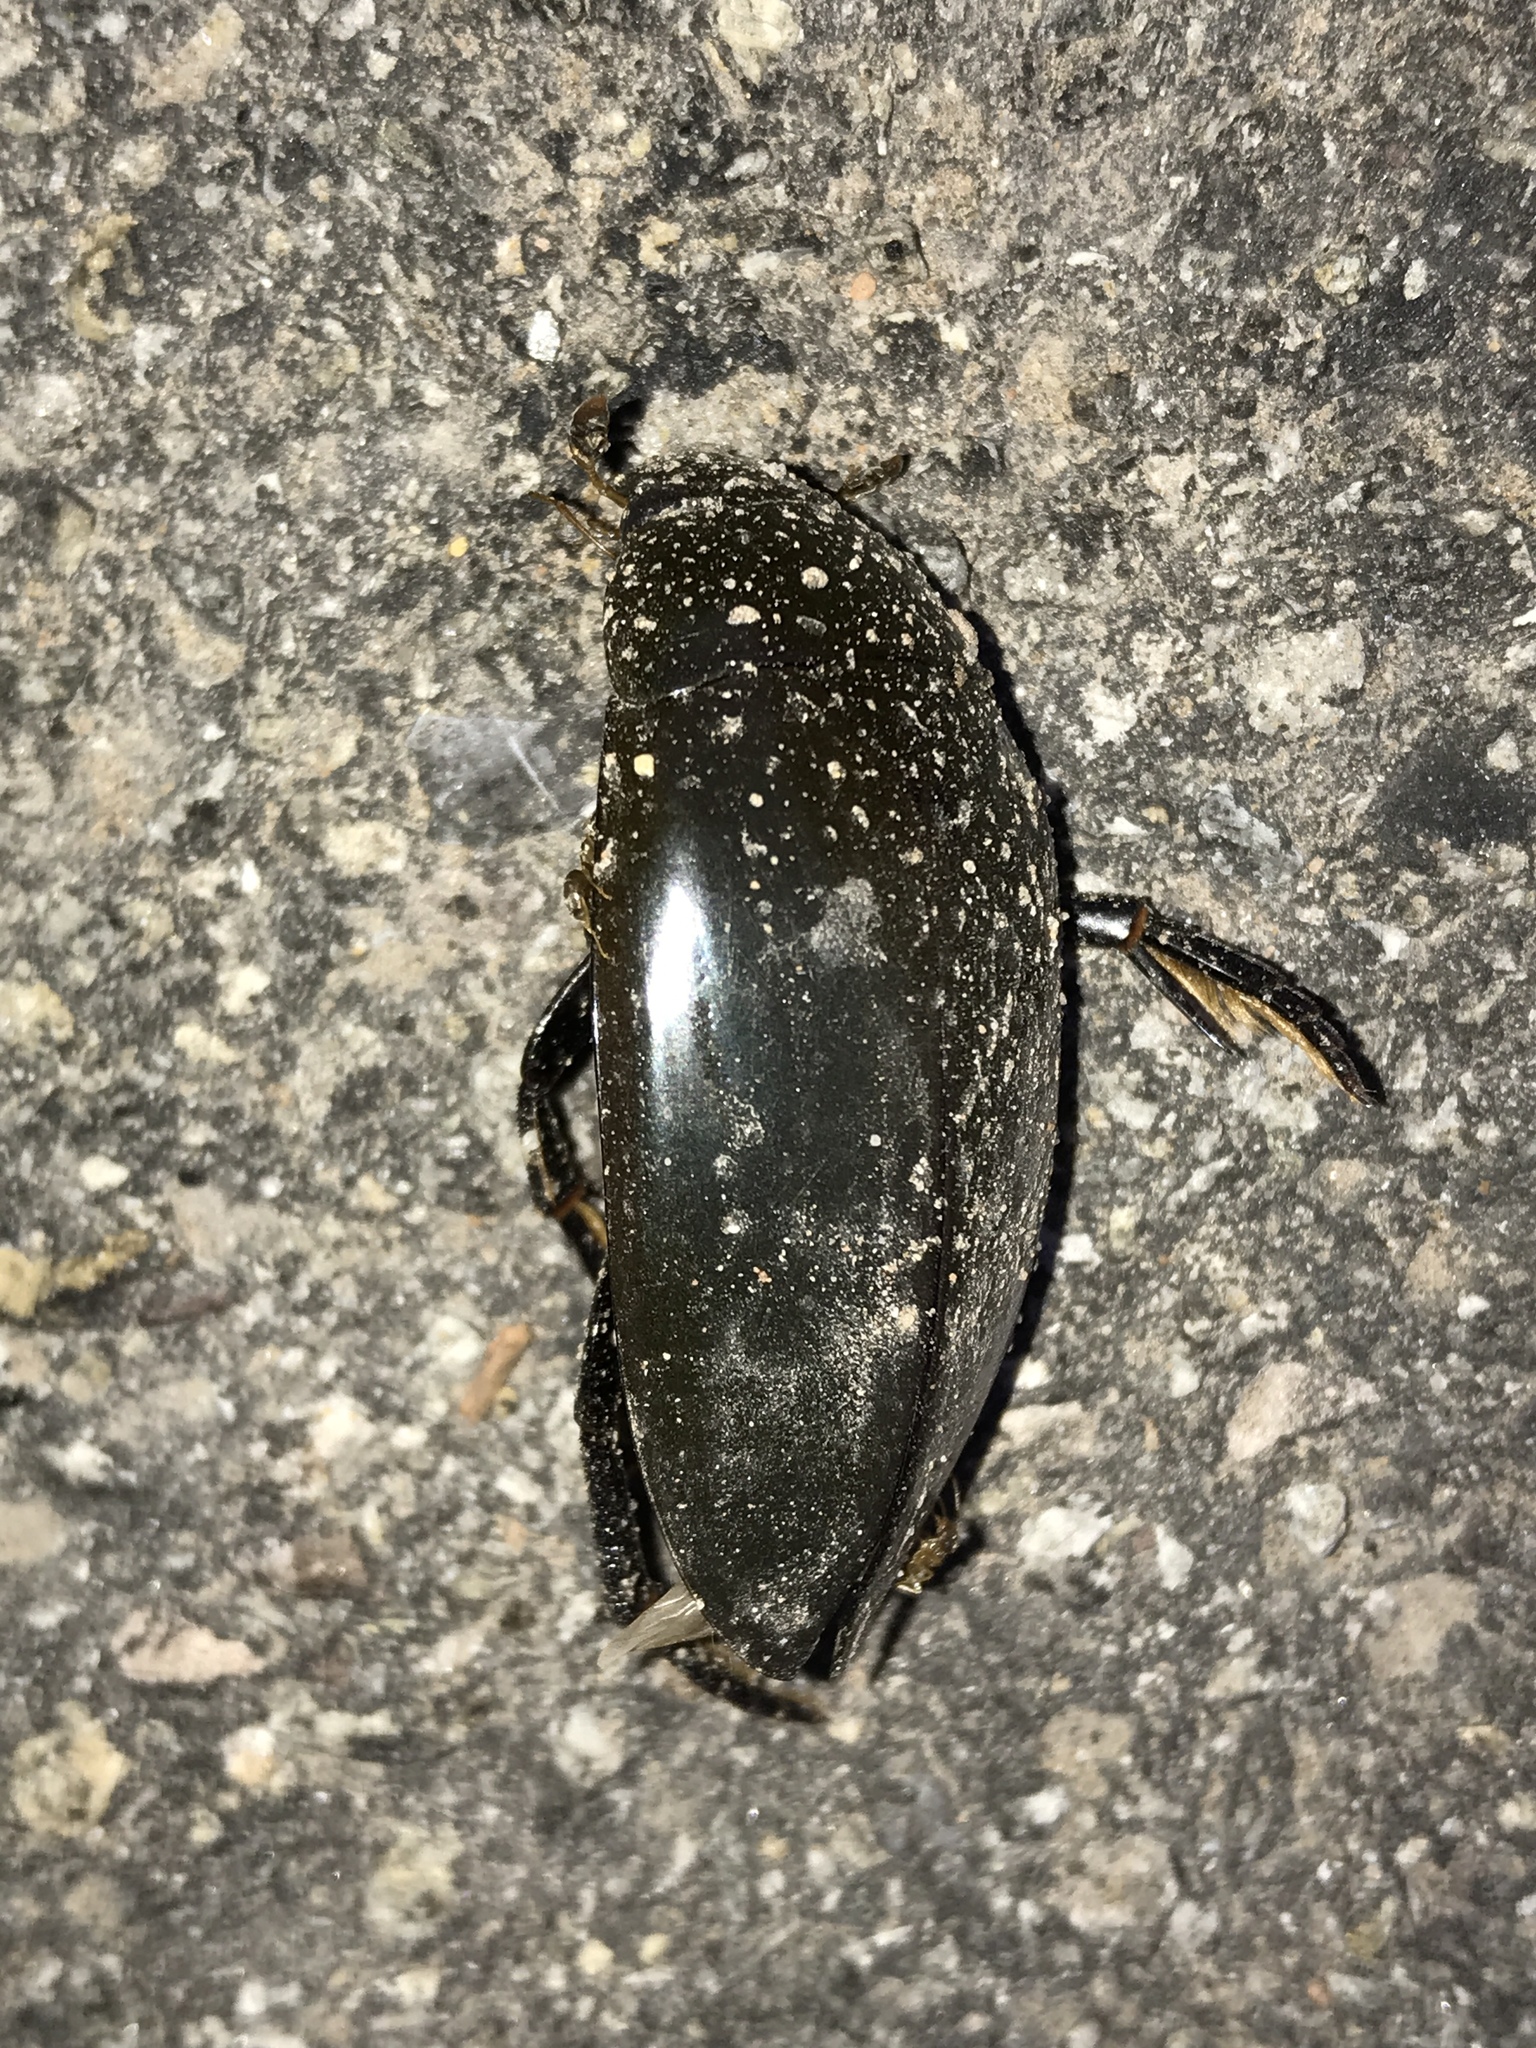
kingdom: Animalia
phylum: Arthropoda
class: Insecta
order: Coleoptera
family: Hydrophilidae
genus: Hydrophilus
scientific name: Hydrophilus triangularis
